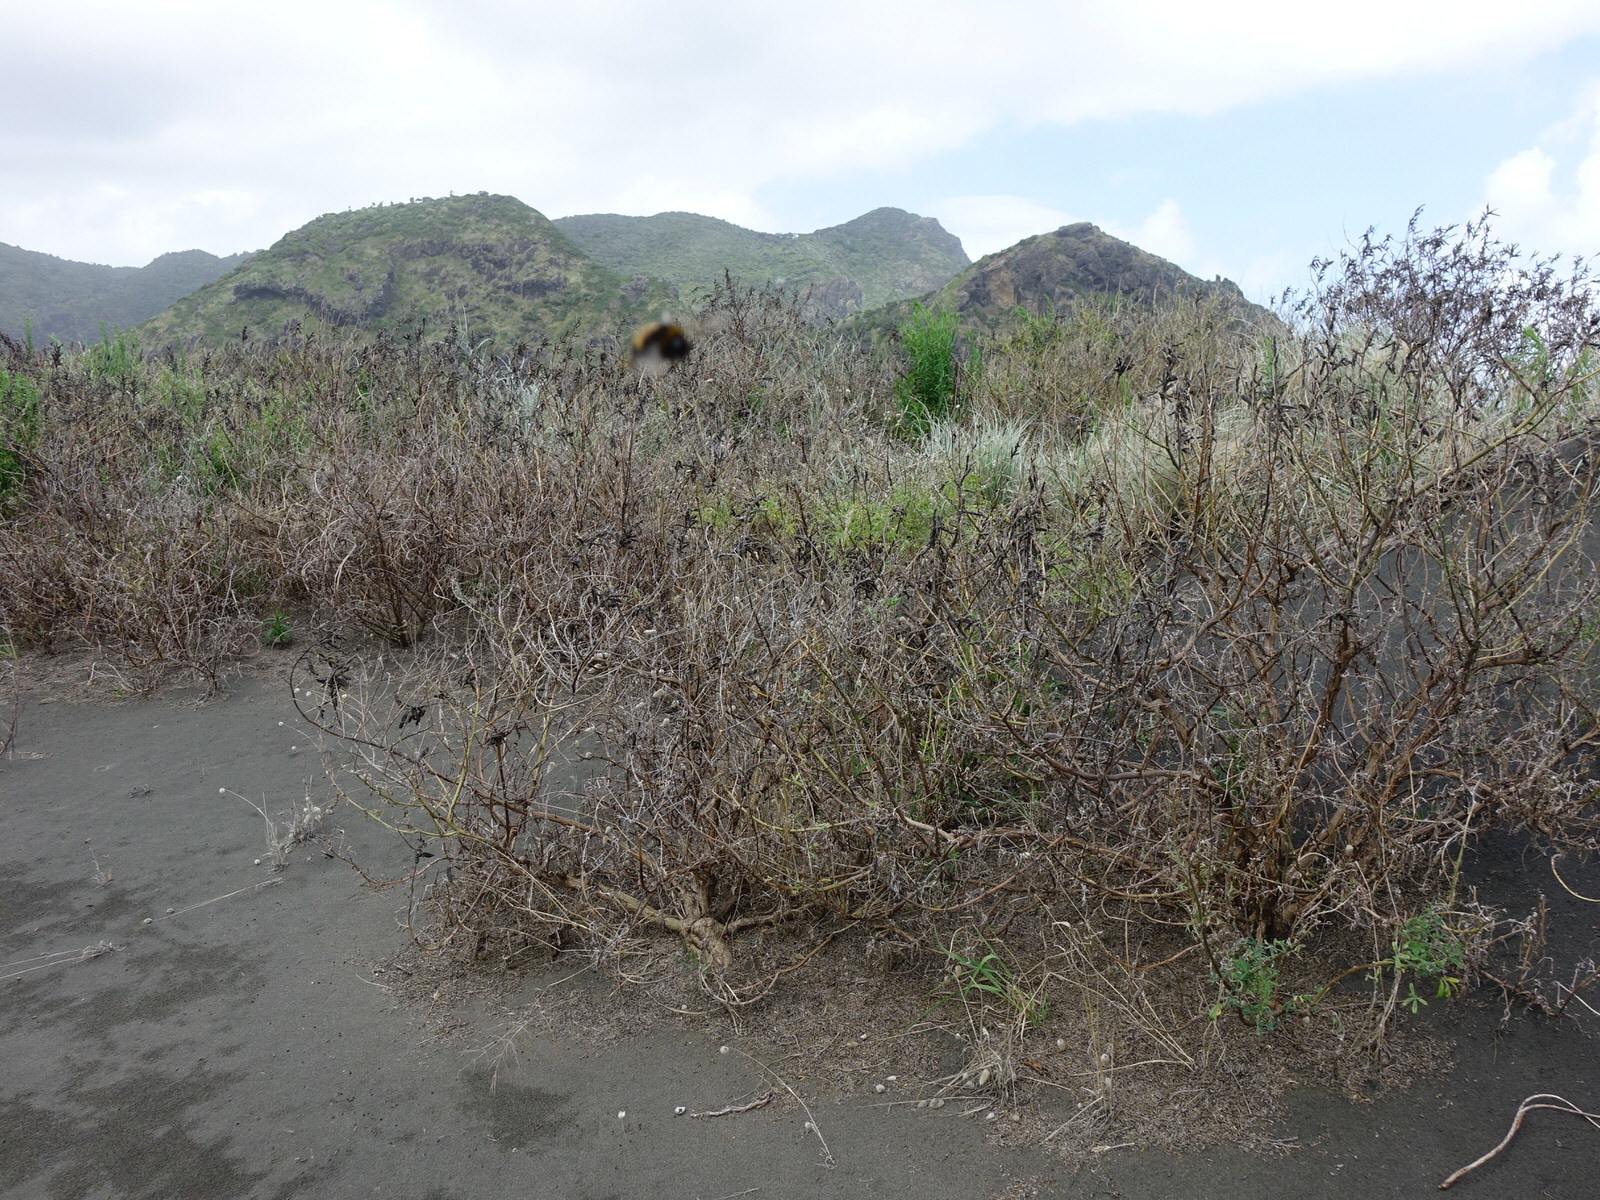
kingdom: Plantae
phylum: Tracheophyta
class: Magnoliopsida
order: Fabales
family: Fabaceae
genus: Lupinus
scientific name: Lupinus arboreus
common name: Yellow bush lupine
